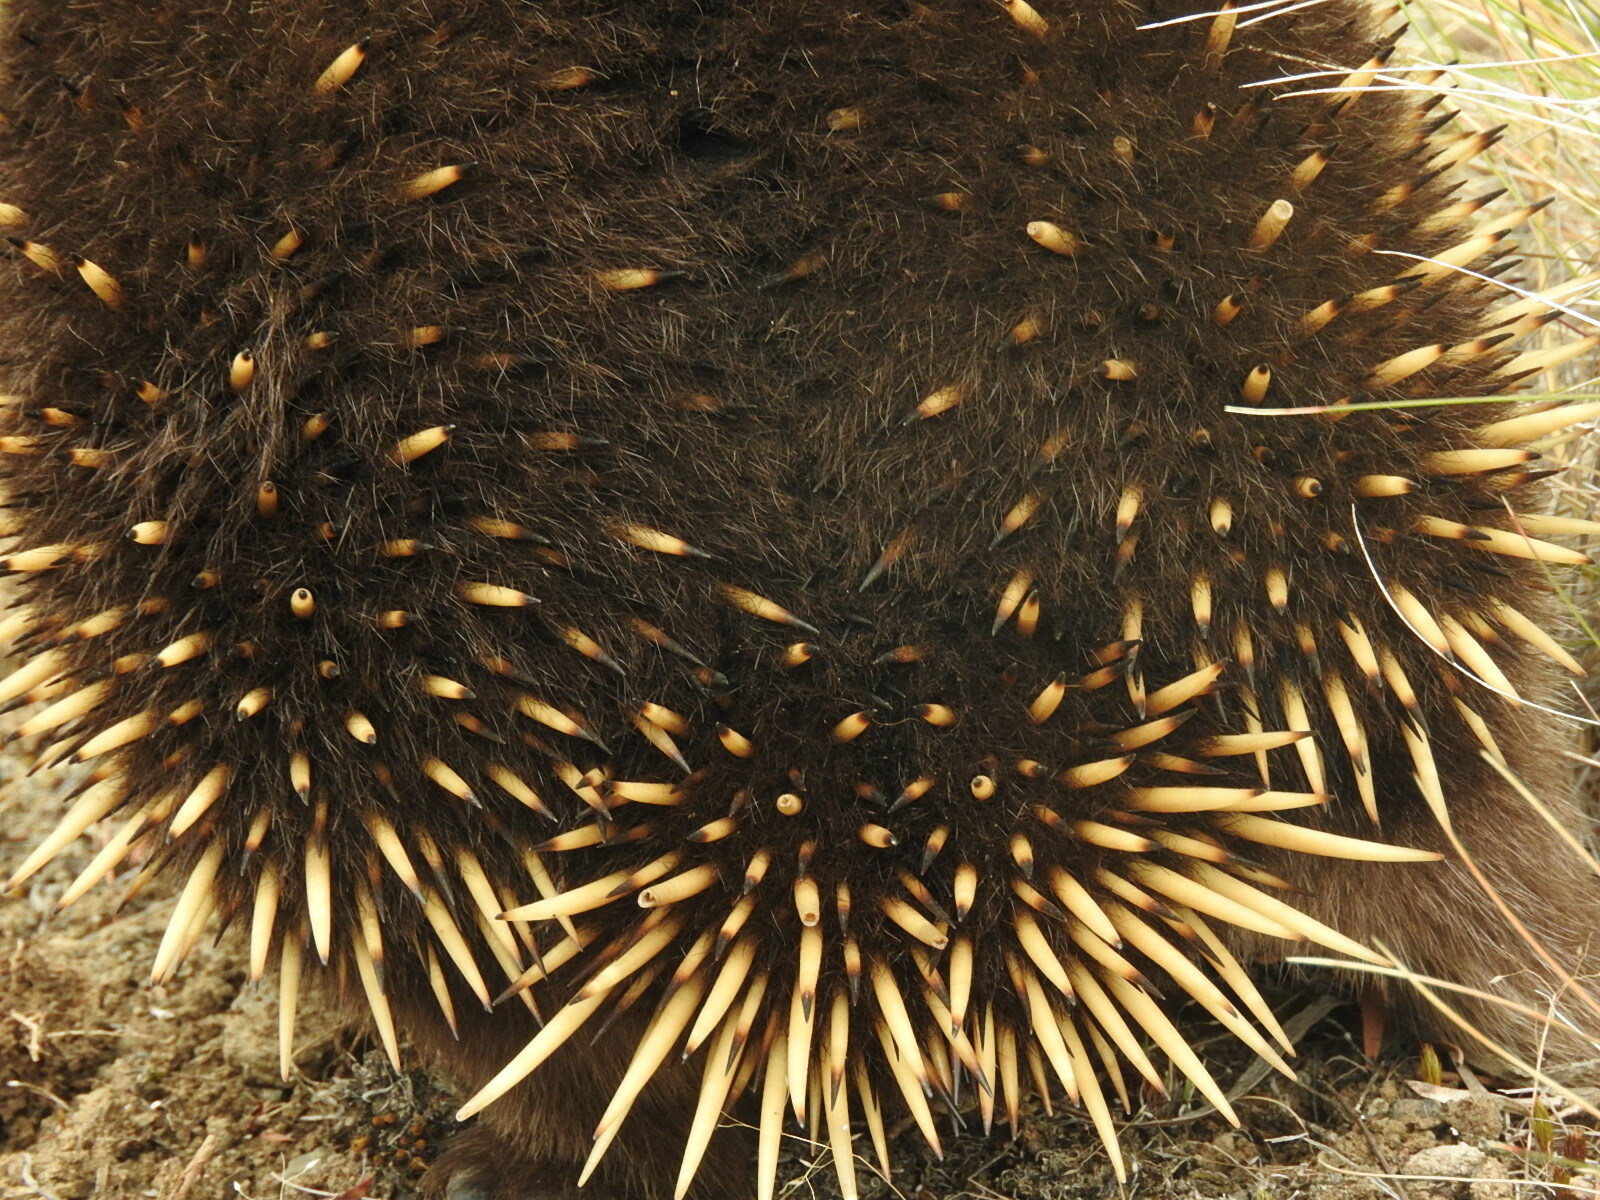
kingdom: Animalia
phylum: Chordata
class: Mammalia
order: Monotremata
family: Tachyglossidae
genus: Tachyglossus
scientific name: Tachyglossus aculeatus
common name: Short-beaked echidna
